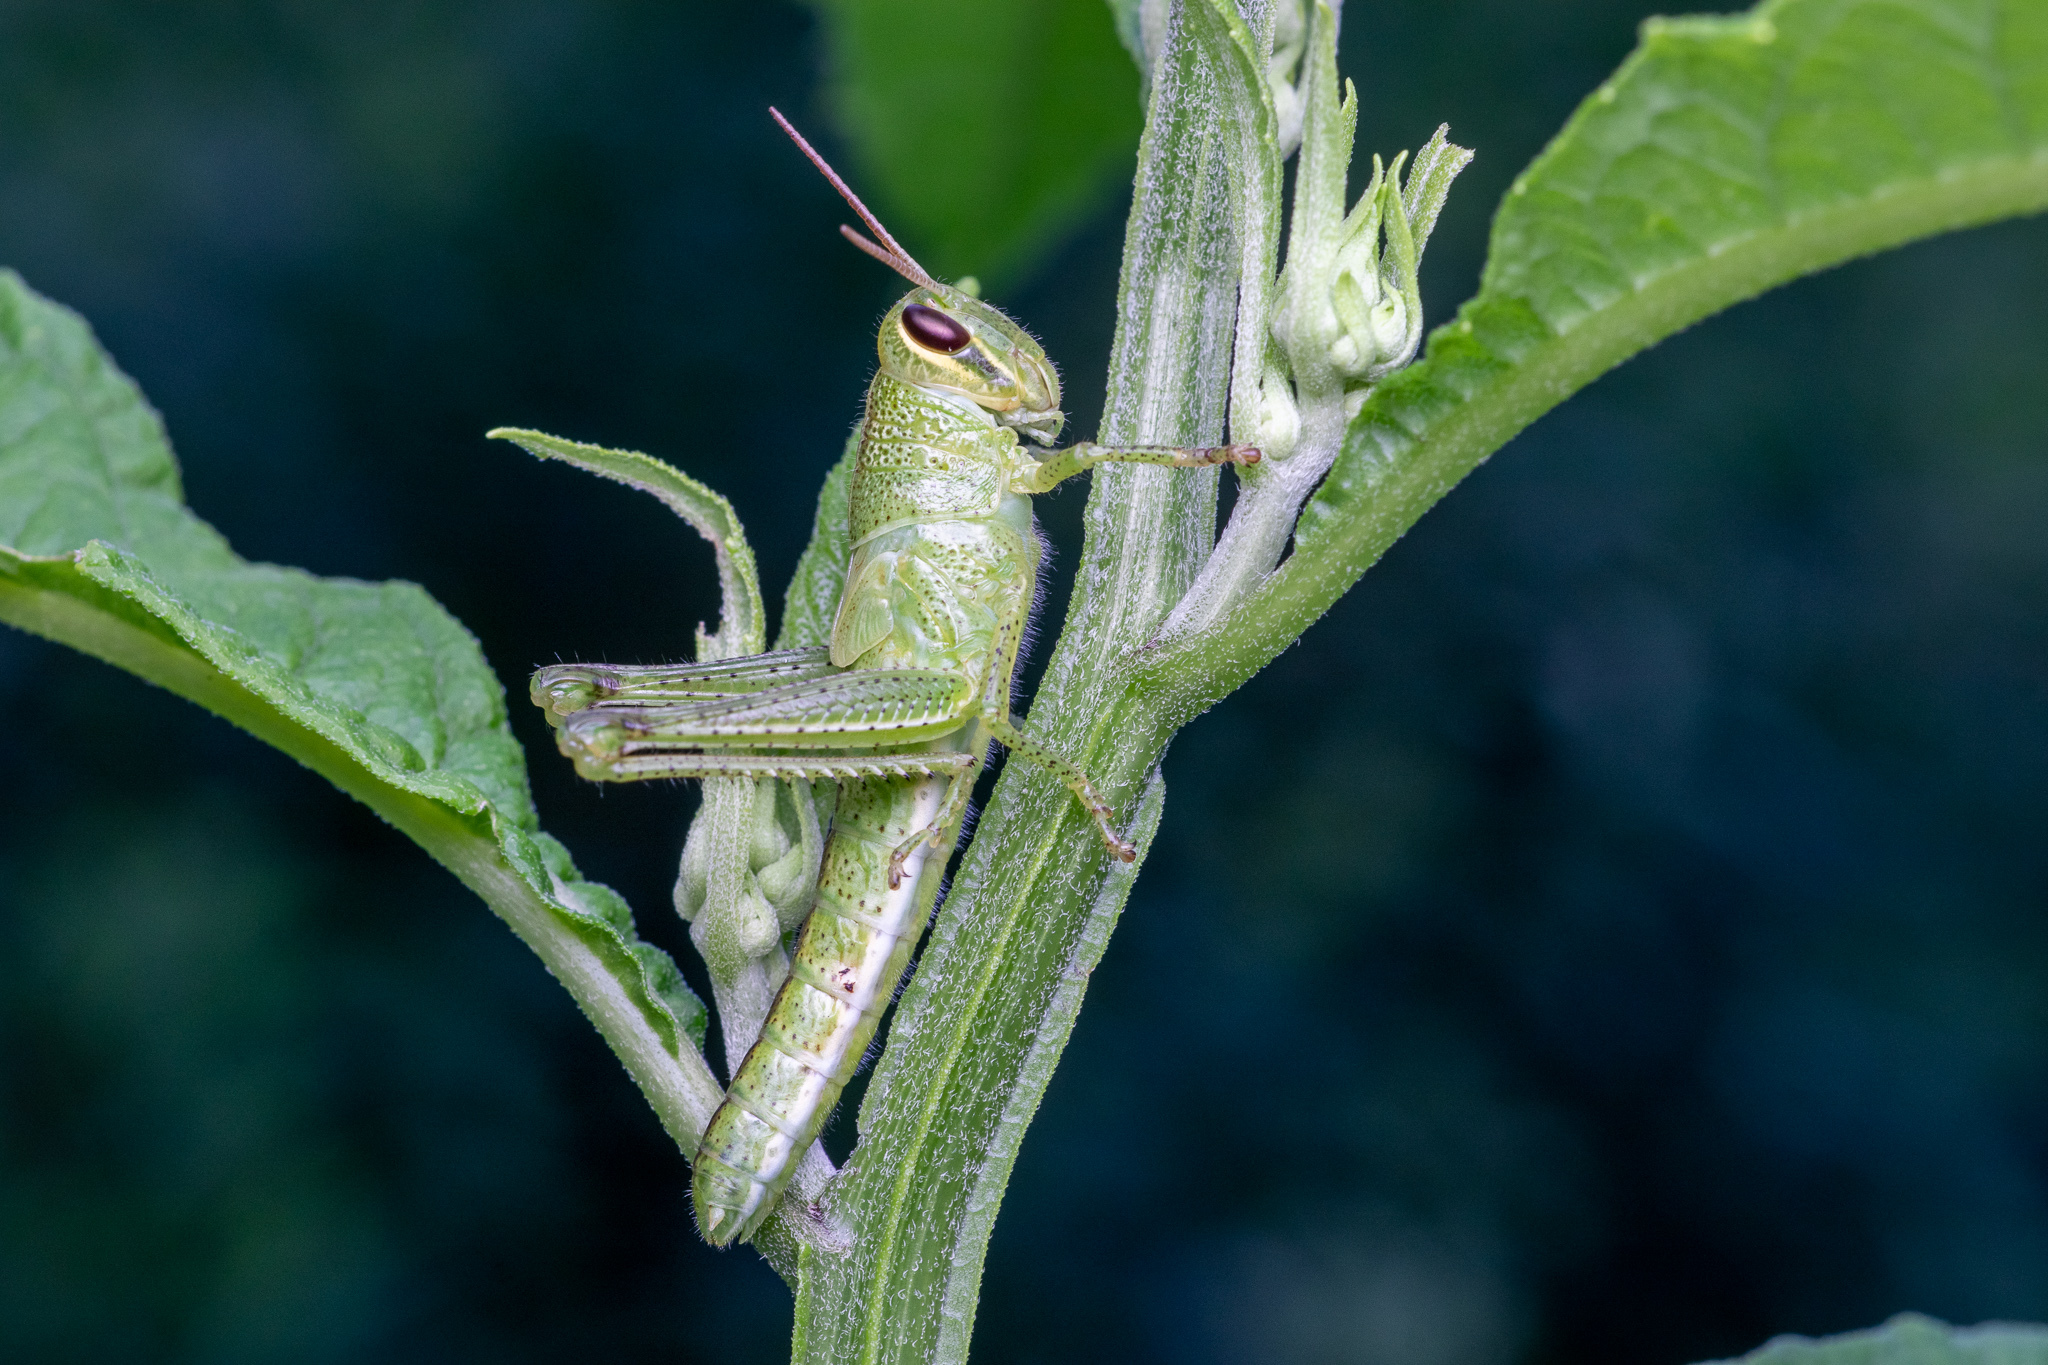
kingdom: Animalia
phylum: Arthropoda
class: Insecta
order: Orthoptera
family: Acrididae
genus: Schistocerca
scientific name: Schistocerca americana
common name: American bird locust
